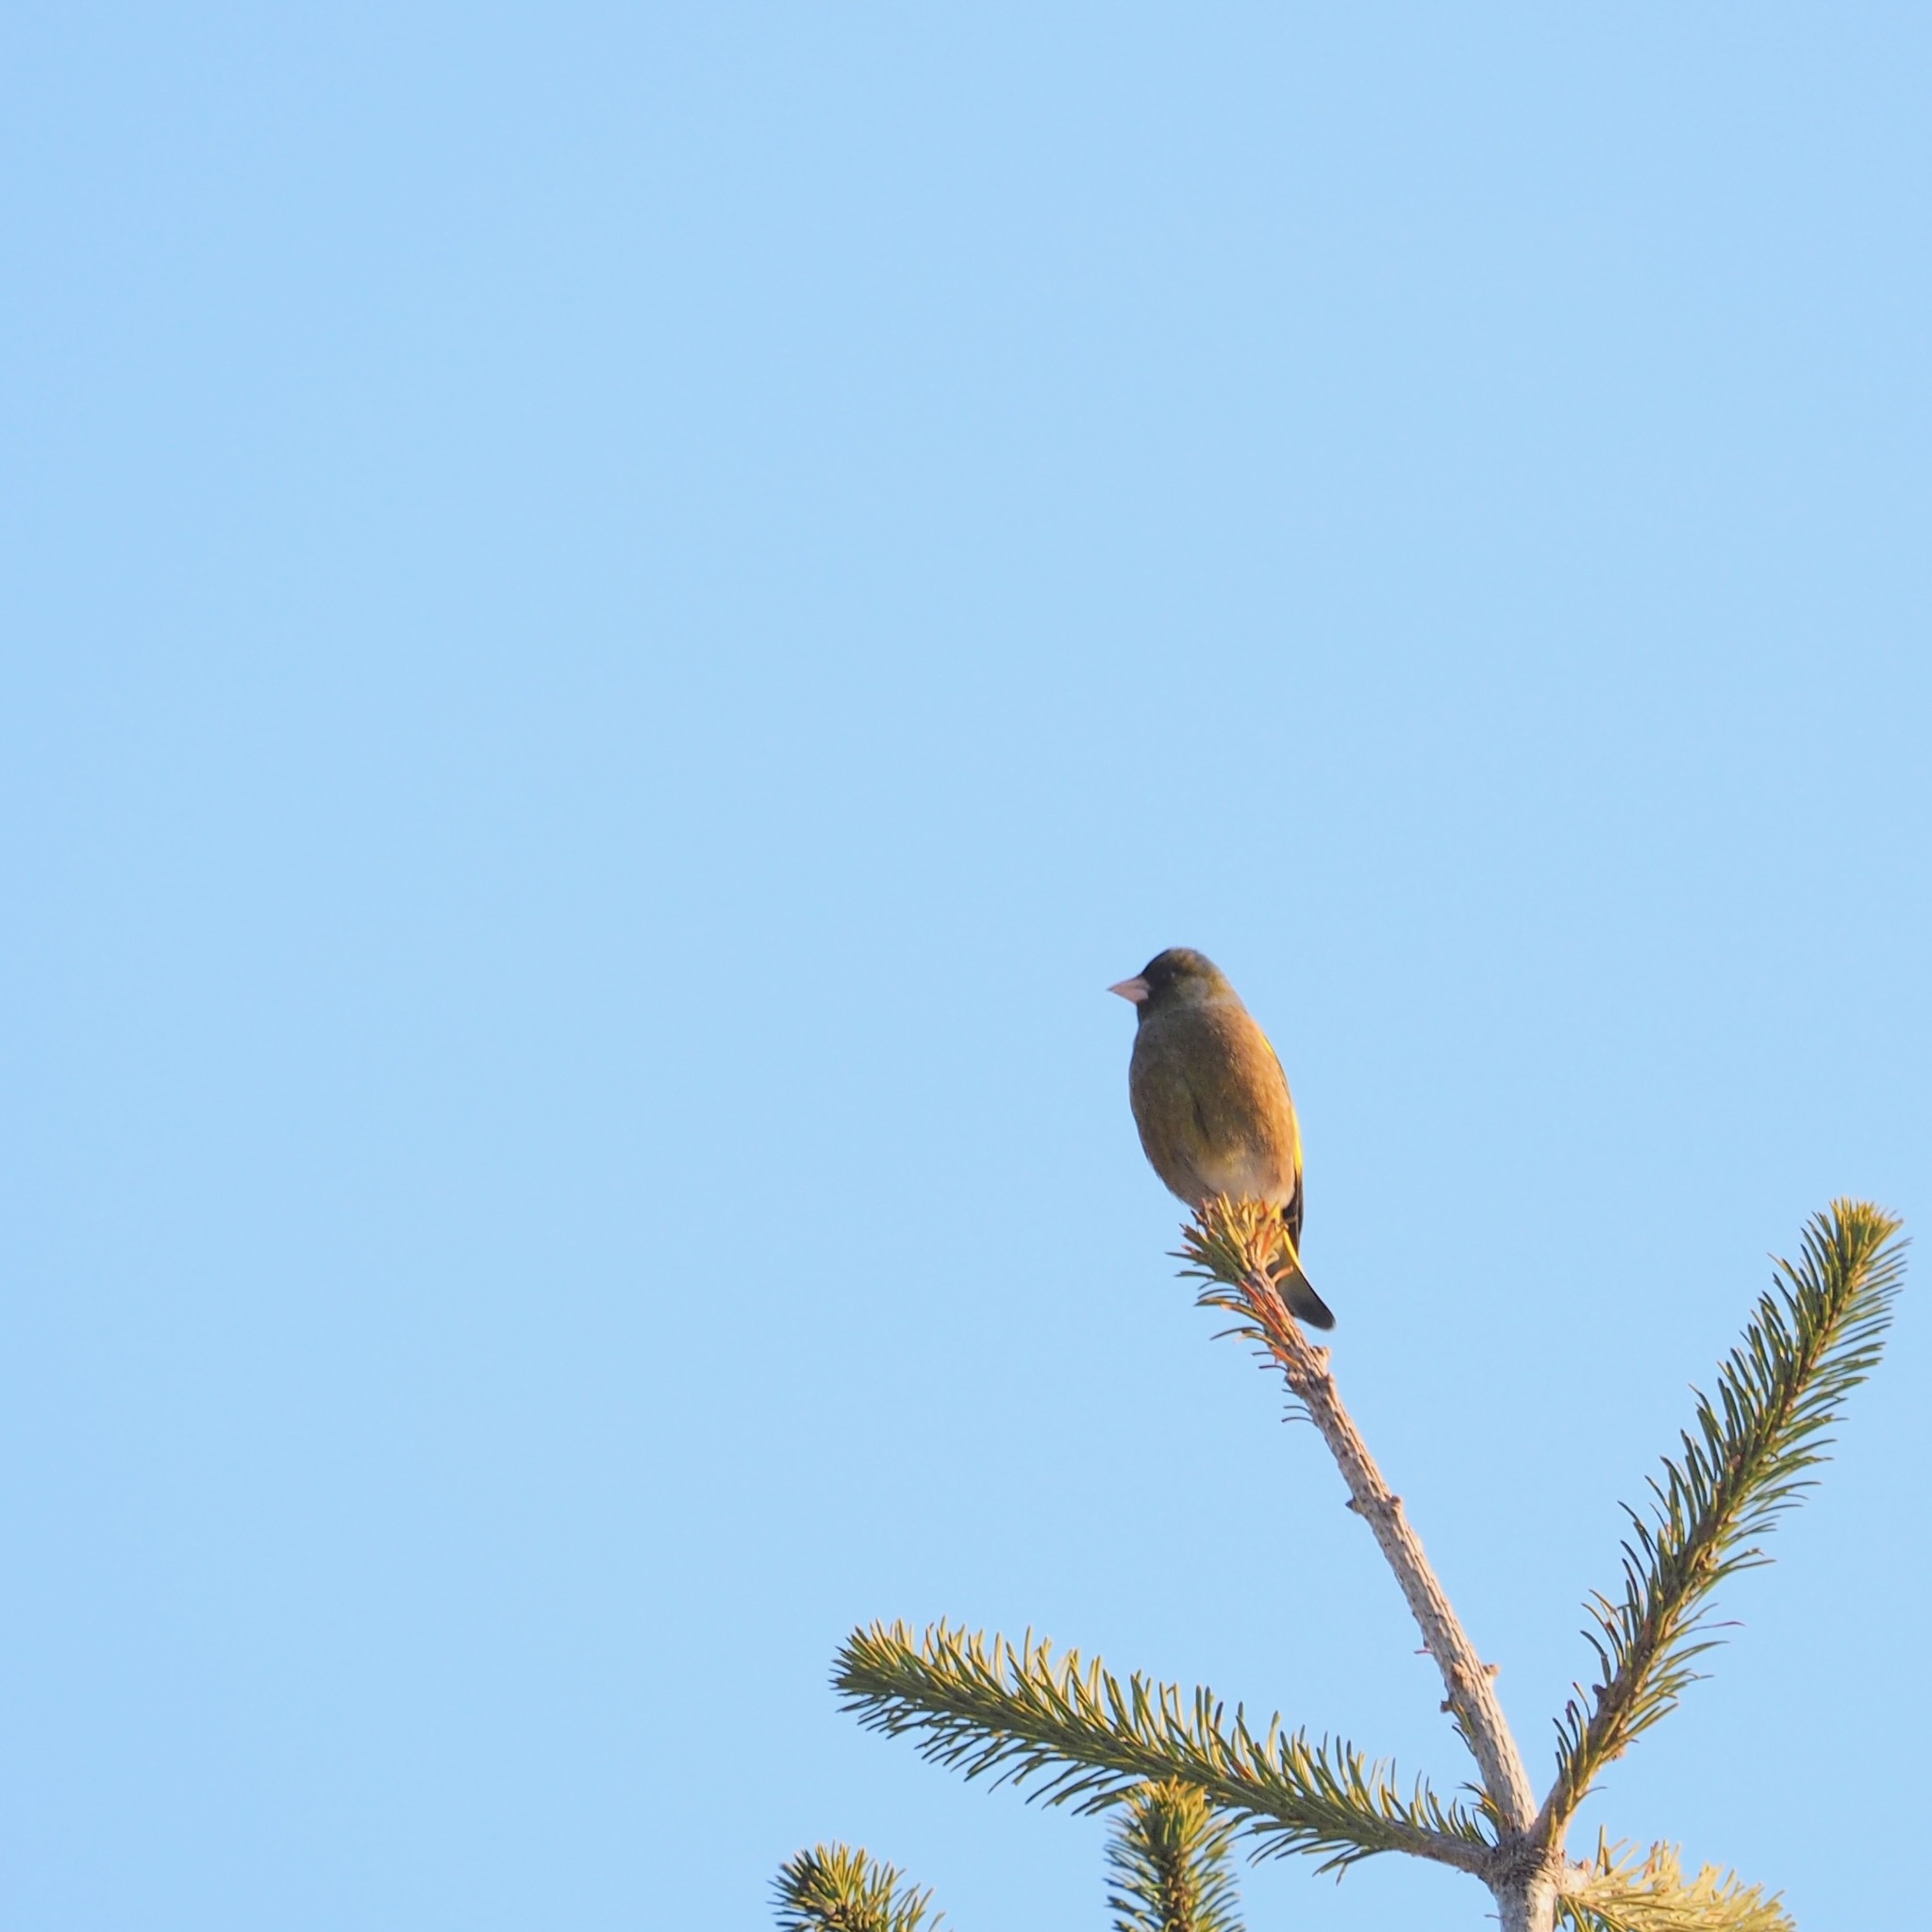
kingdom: Plantae
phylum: Tracheophyta
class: Liliopsida
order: Poales
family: Poaceae
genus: Chloris
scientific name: Chloris sinica
